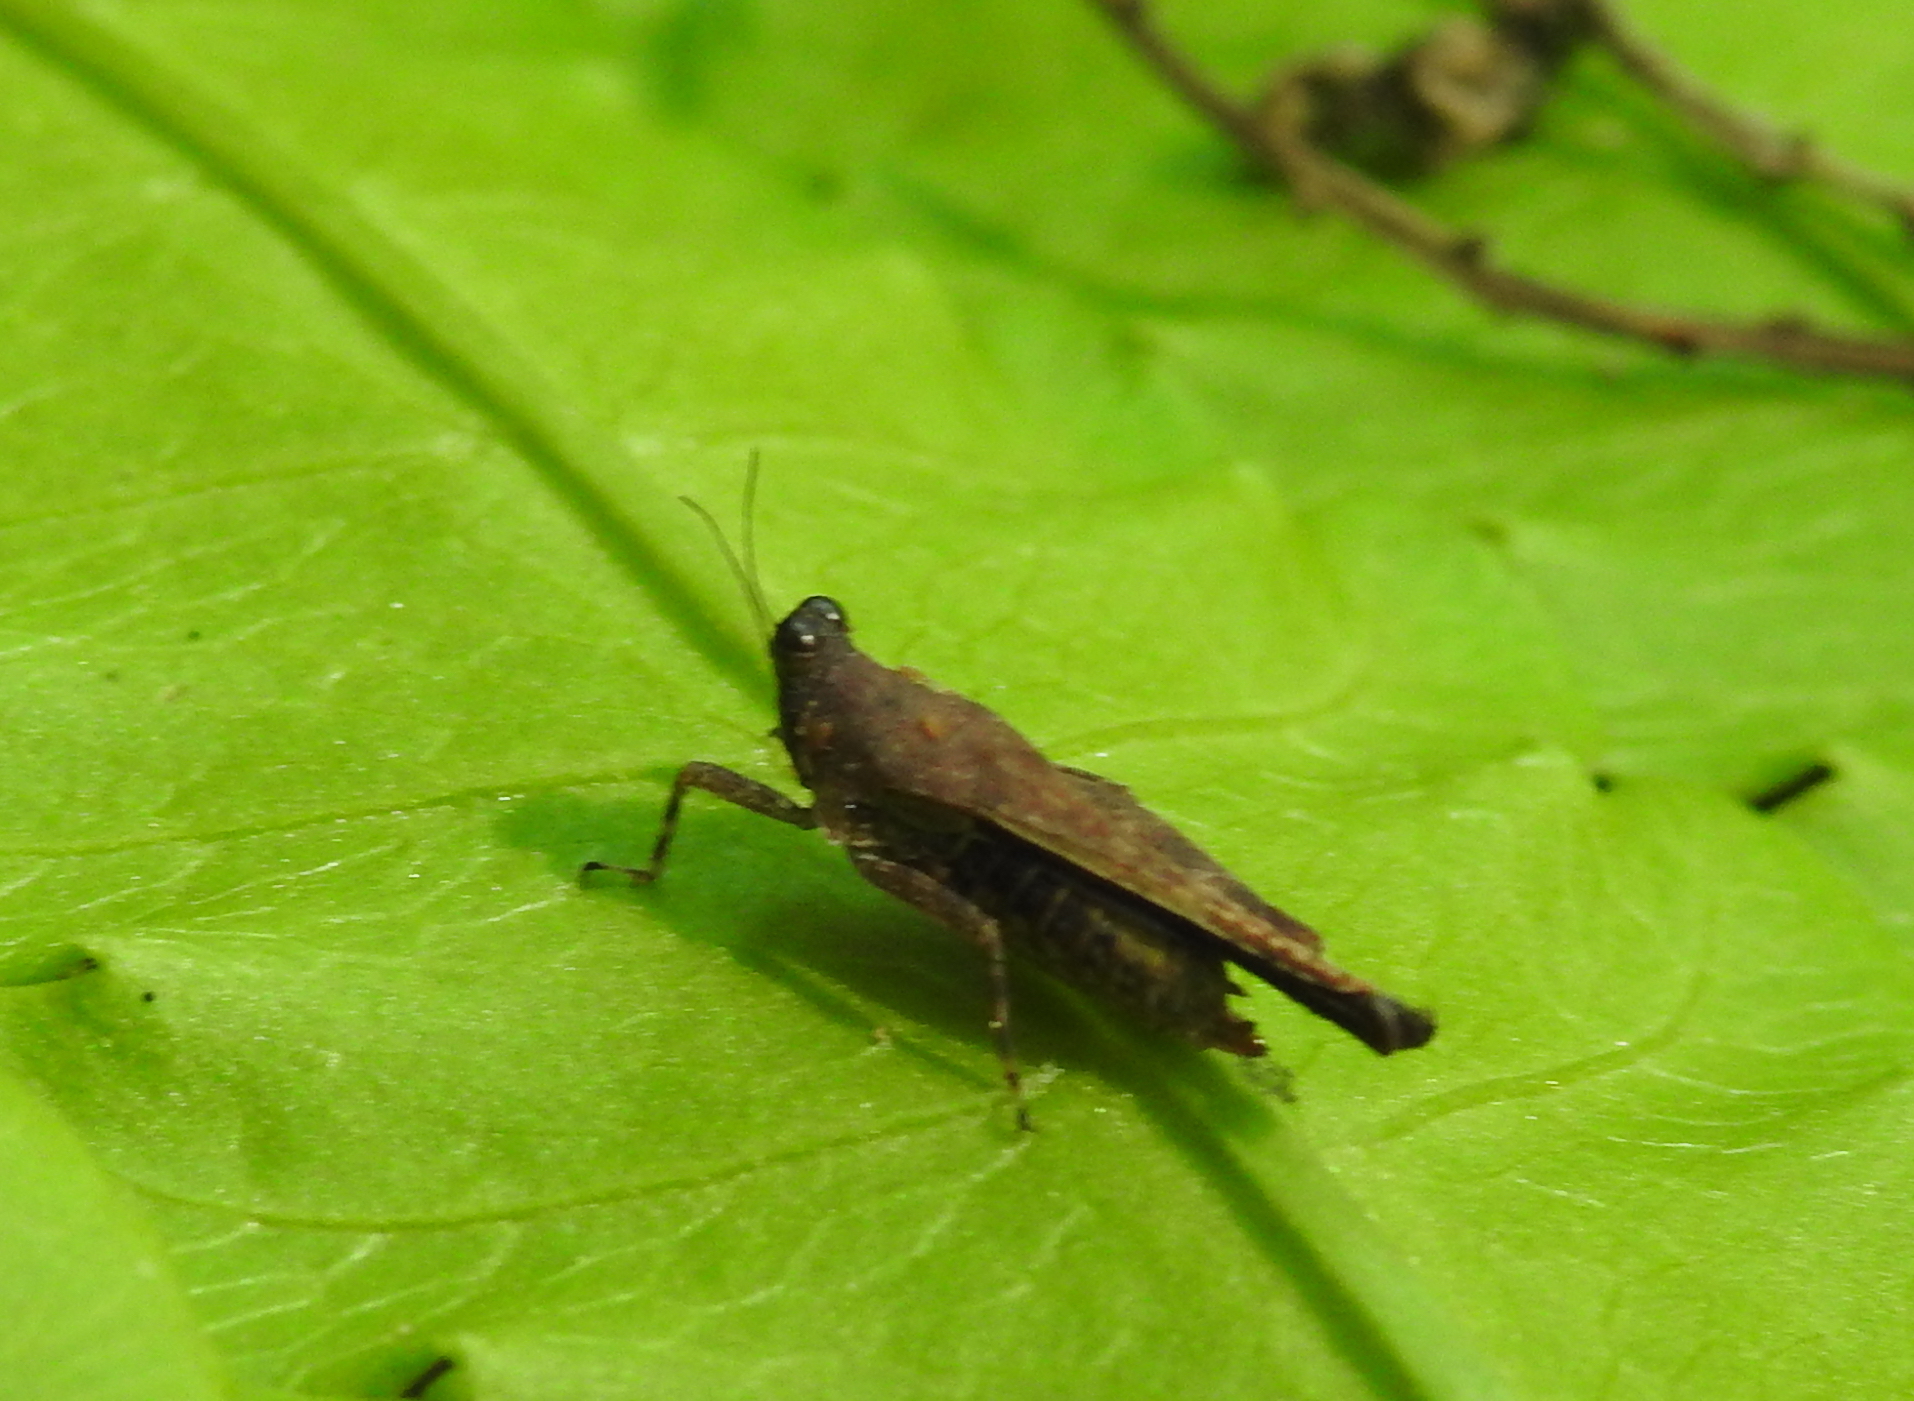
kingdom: Animalia
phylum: Arthropoda
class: Insecta
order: Orthoptera
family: Tetrigidae
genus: Systolederus
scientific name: Systolederus cinereus
